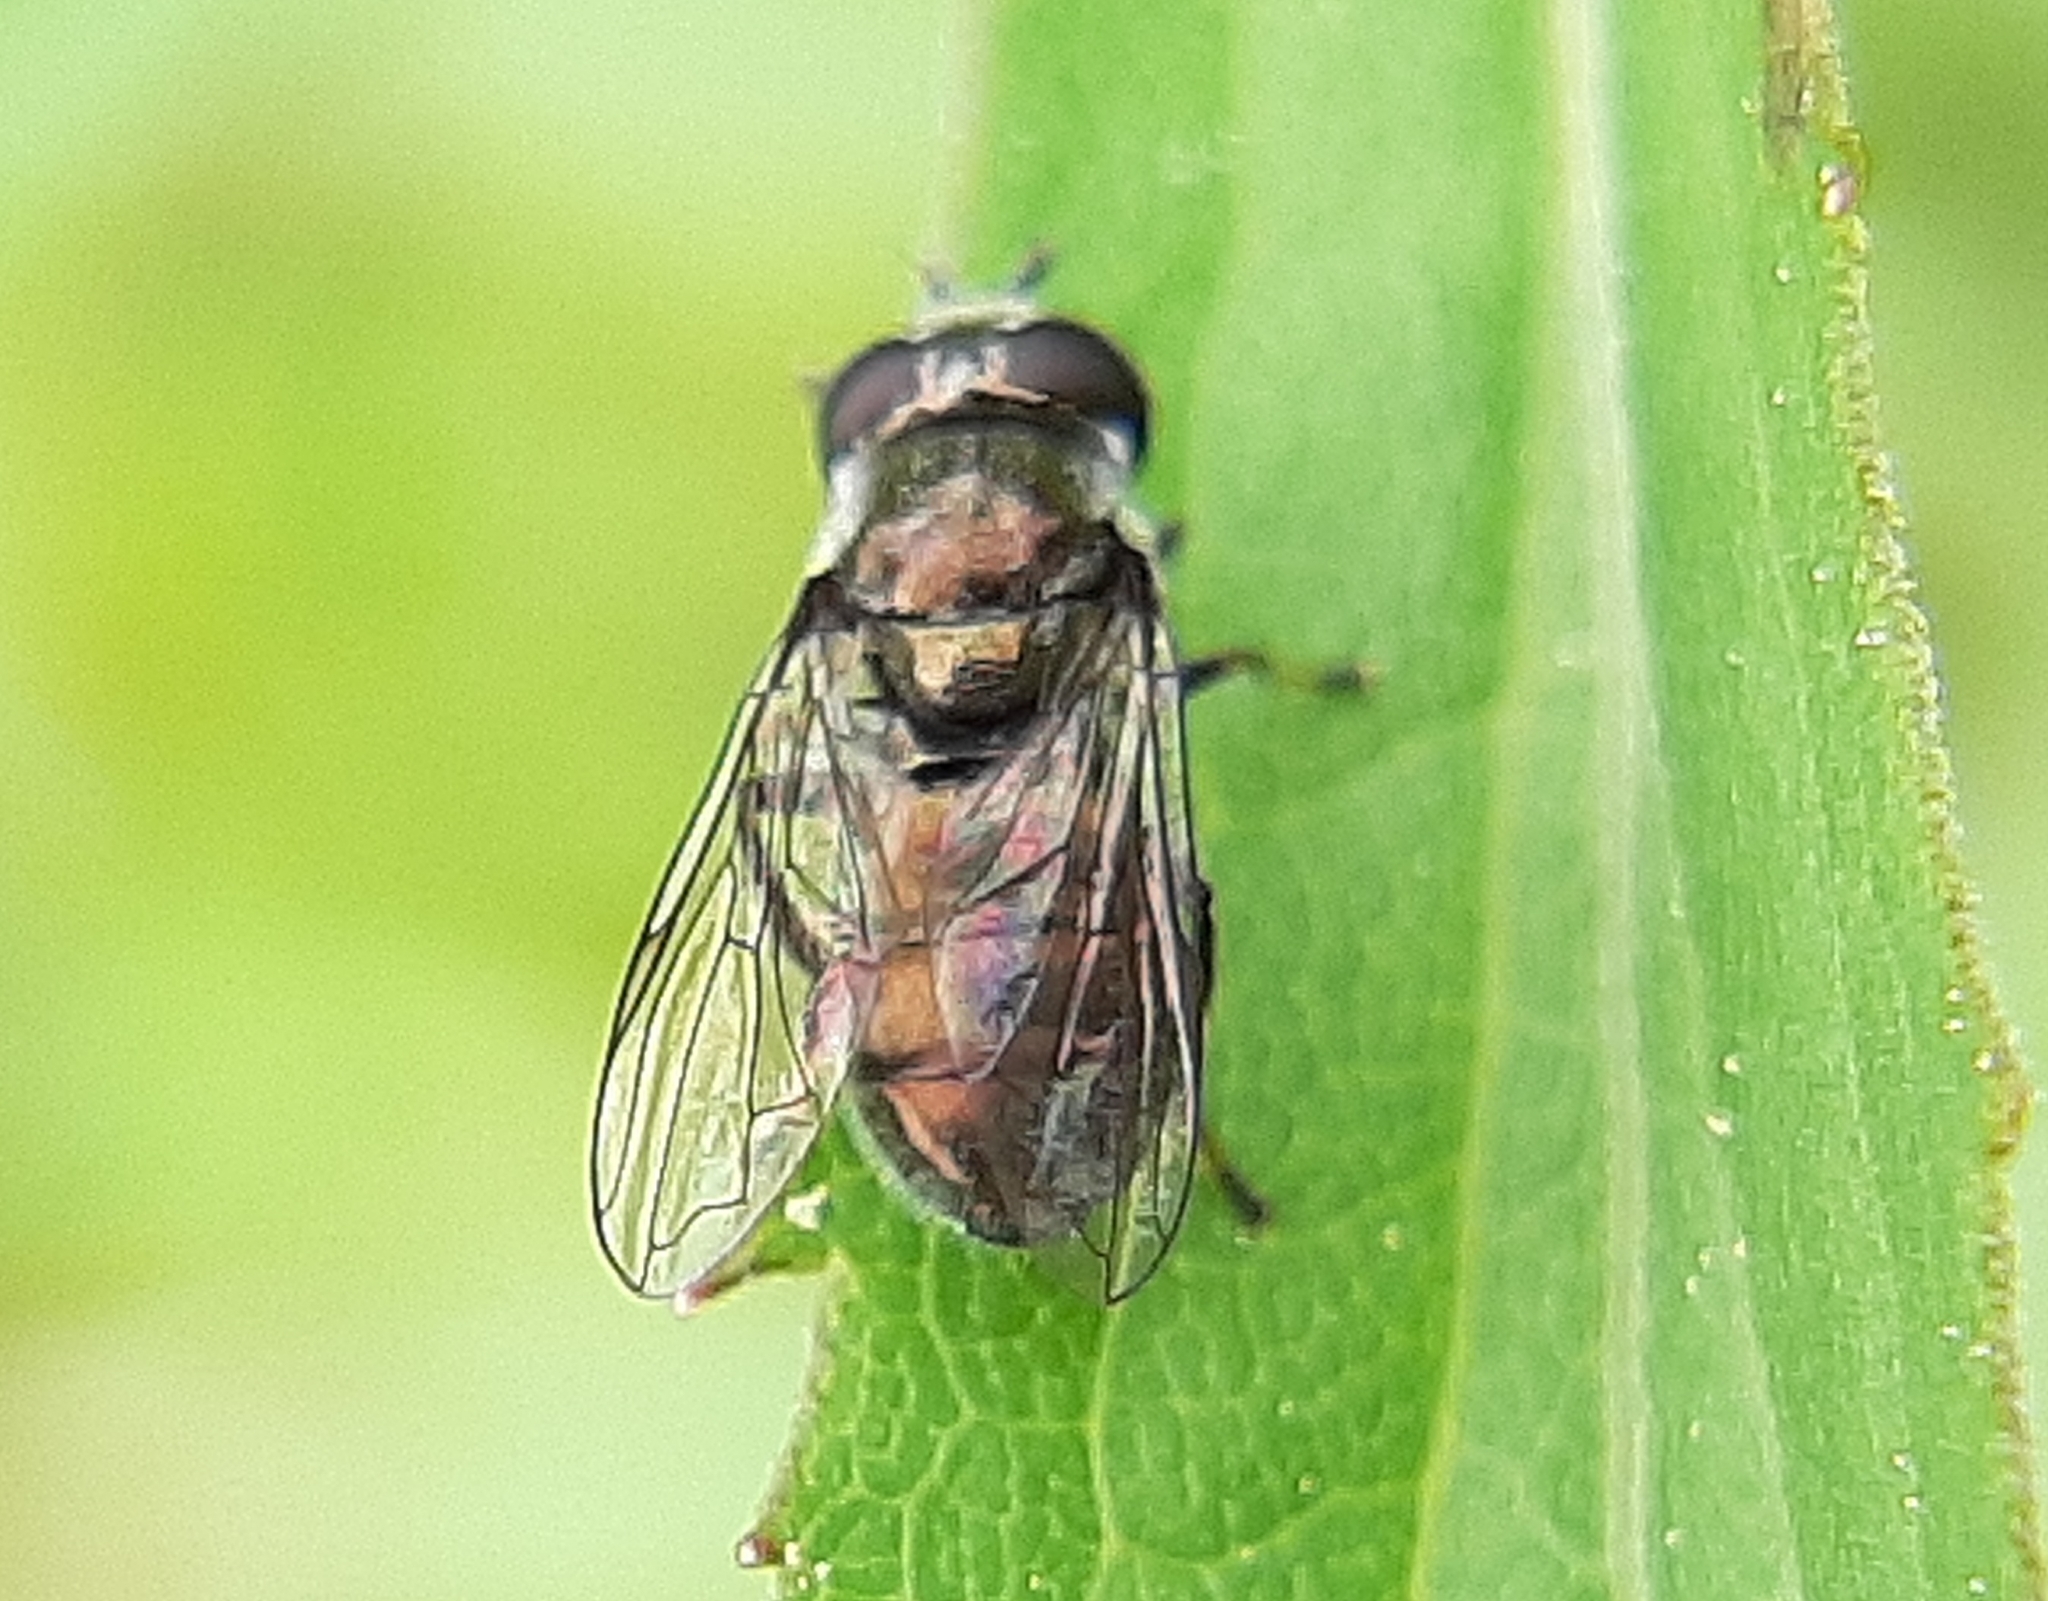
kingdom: Animalia
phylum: Arthropoda
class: Insecta
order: Diptera
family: Syrphidae
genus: Trichopsomyia
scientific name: Trichopsomyia recedens
